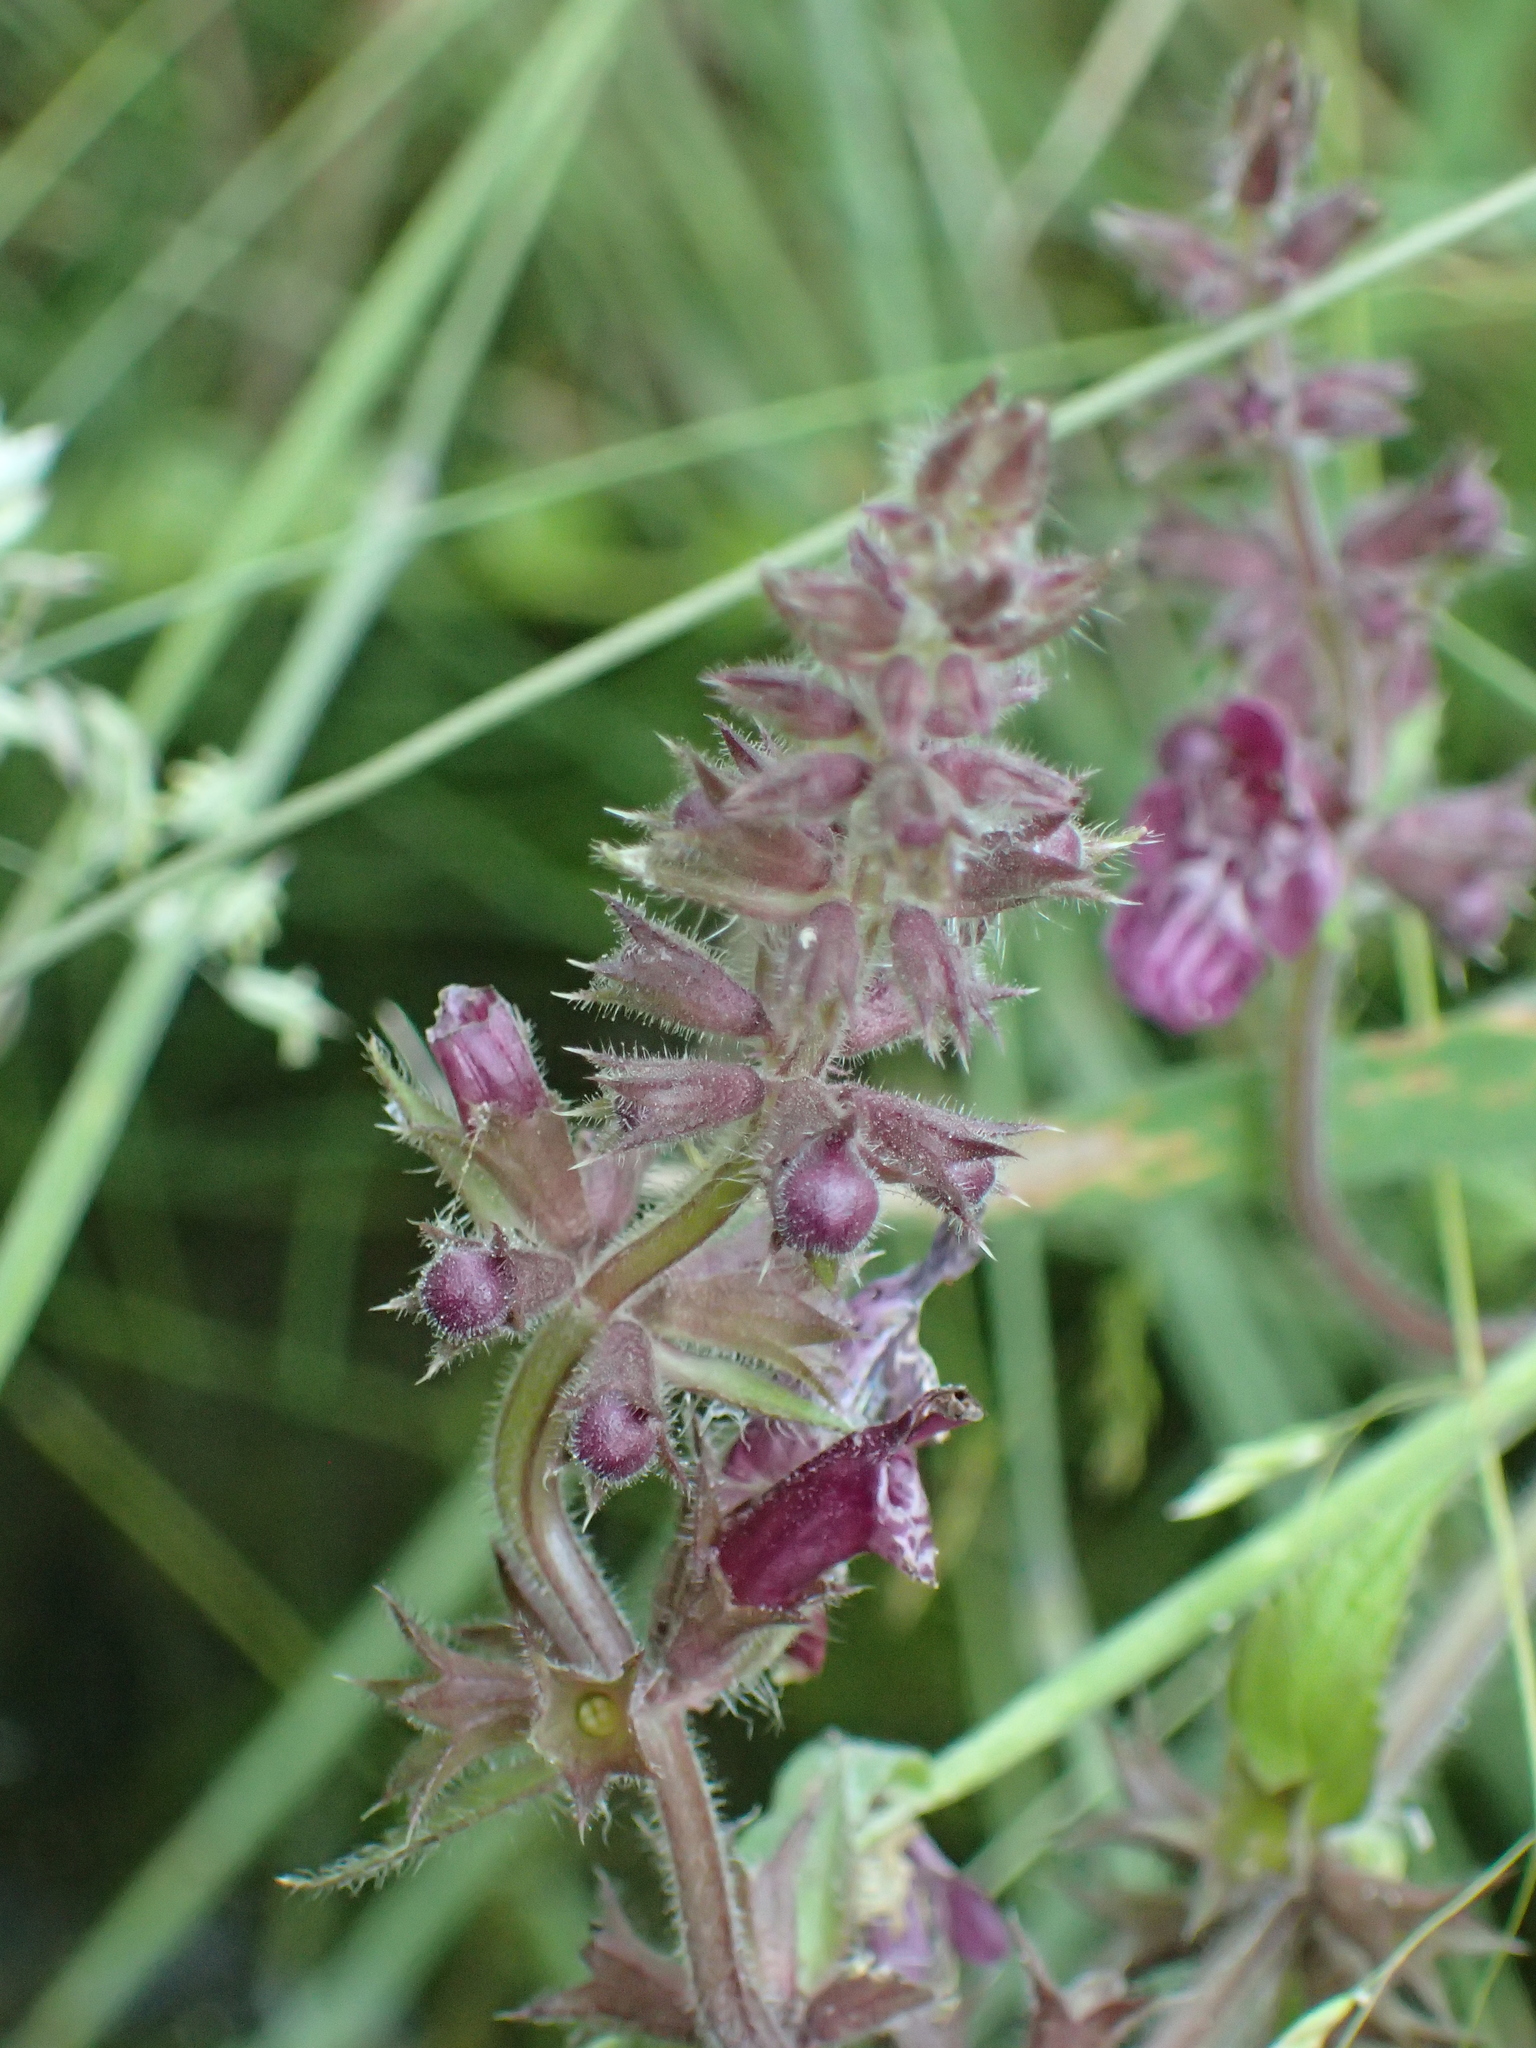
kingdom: Plantae
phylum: Tracheophyta
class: Magnoliopsida
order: Lamiales
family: Lamiaceae
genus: Stachys
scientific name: Stachys sylvatica
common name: Hedge woundwort
